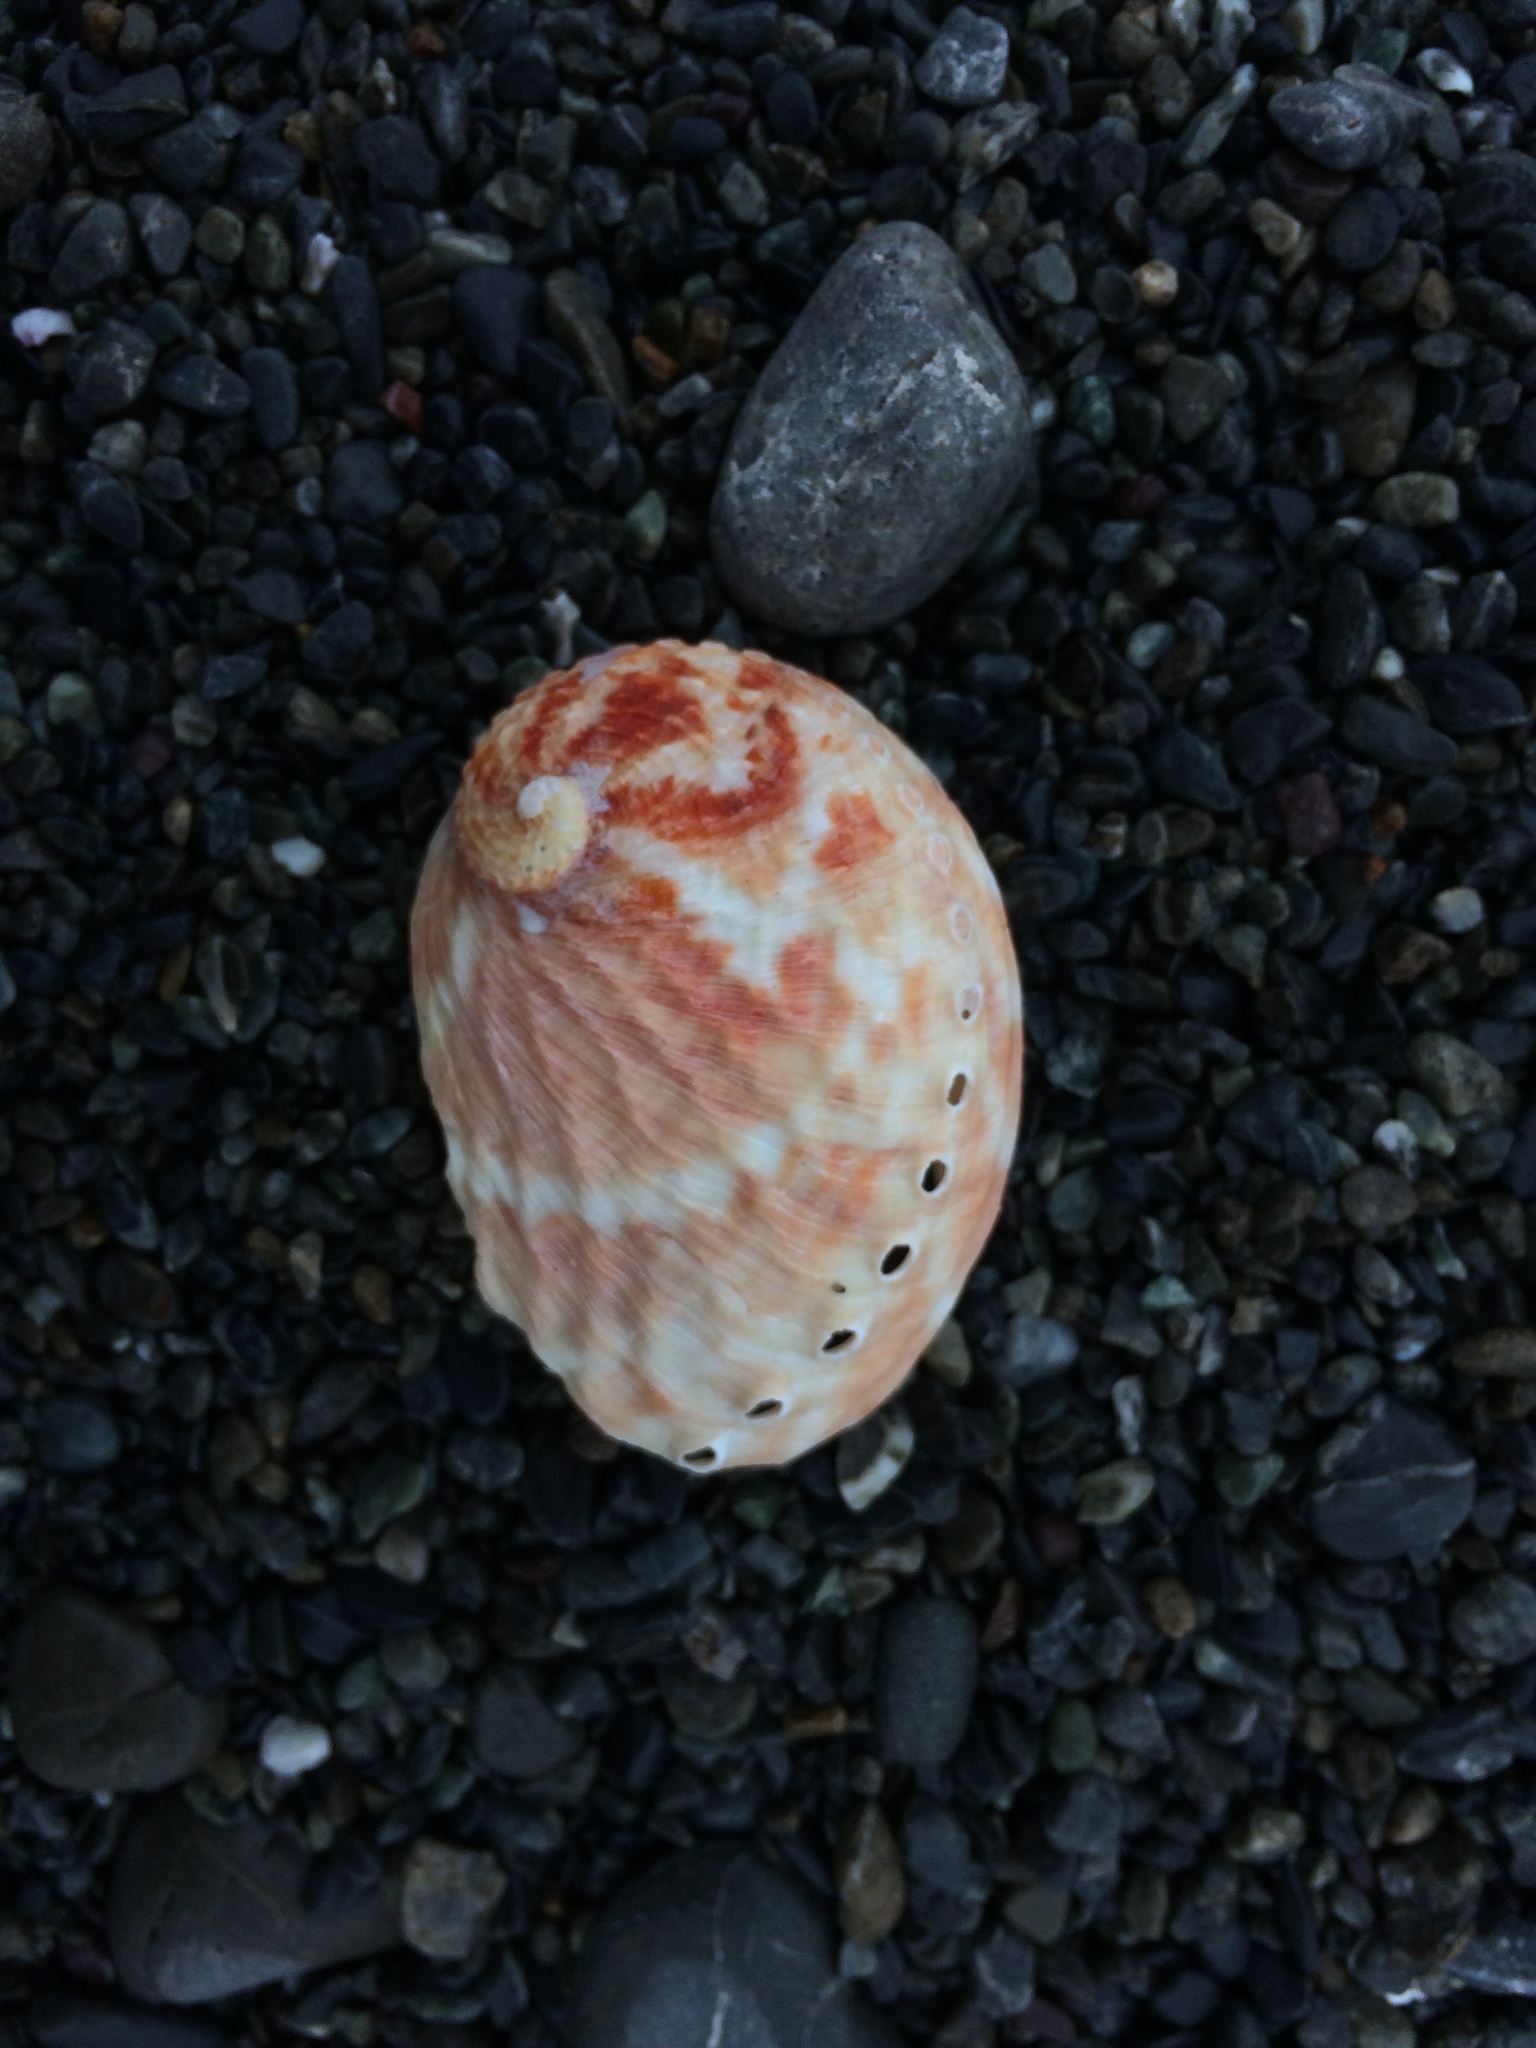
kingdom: Animalia
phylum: Mollusca
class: Gastropoda
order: Lepetellida
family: Haliotidae
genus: Haliotis
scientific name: Haliotis australis
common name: Silver abalone
